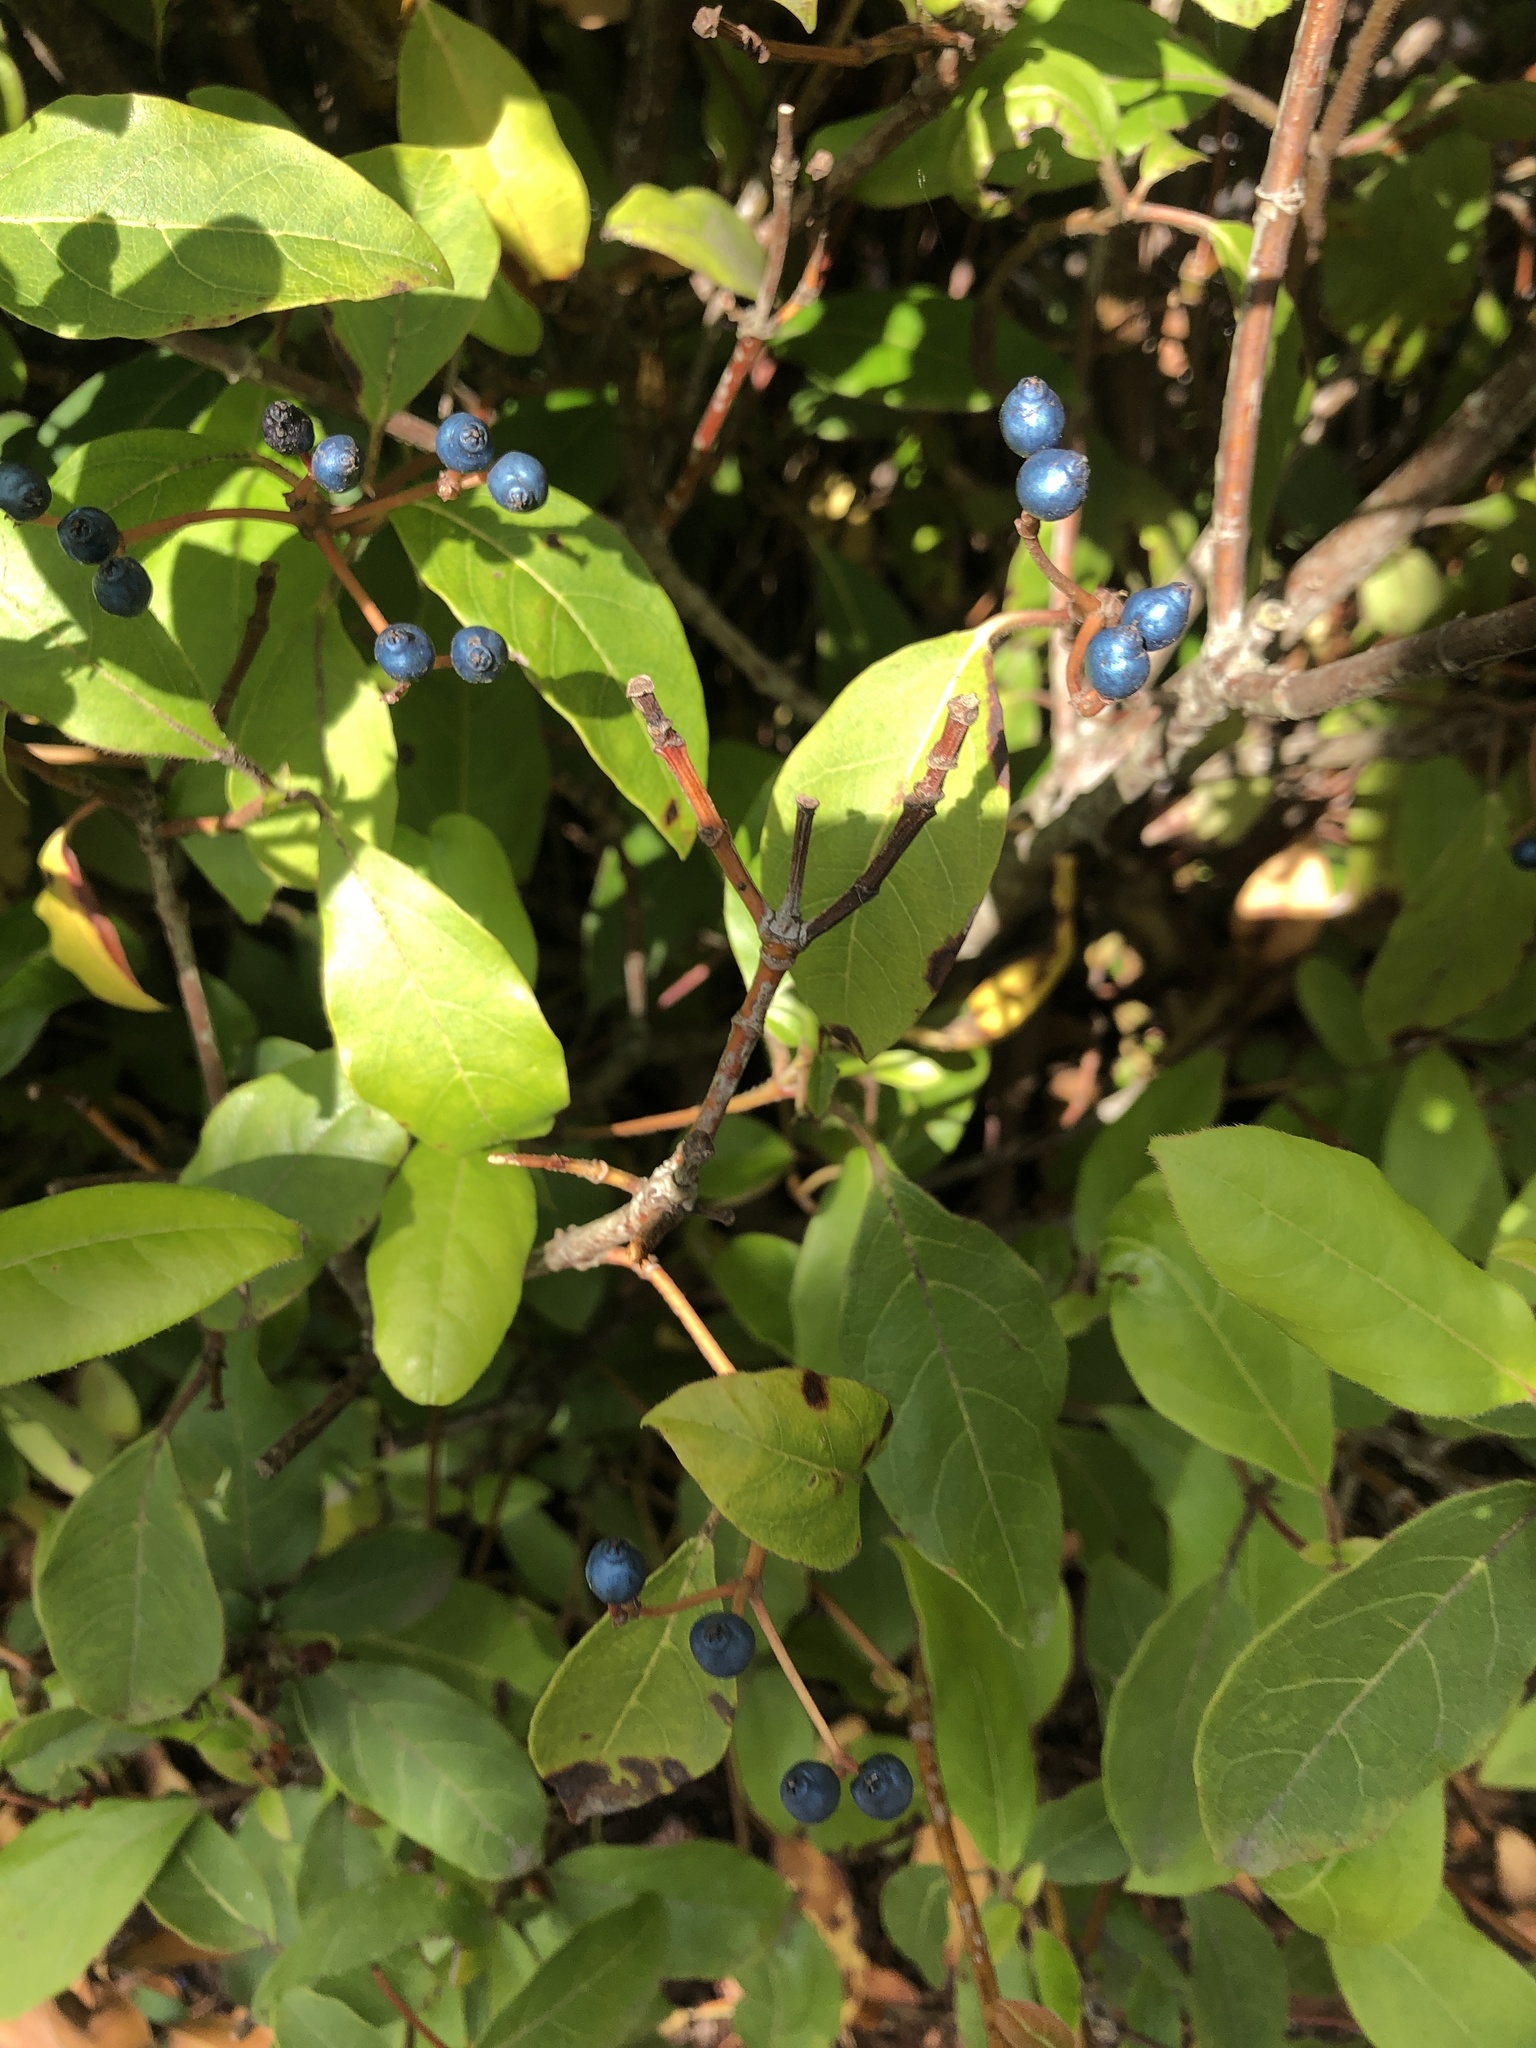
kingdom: Plantae
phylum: Tracheophyta
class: Magnoliopsida
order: Dipsacales
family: Viburnaceae
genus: Viburnum
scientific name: Viburnum tinus
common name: Laurustinus
